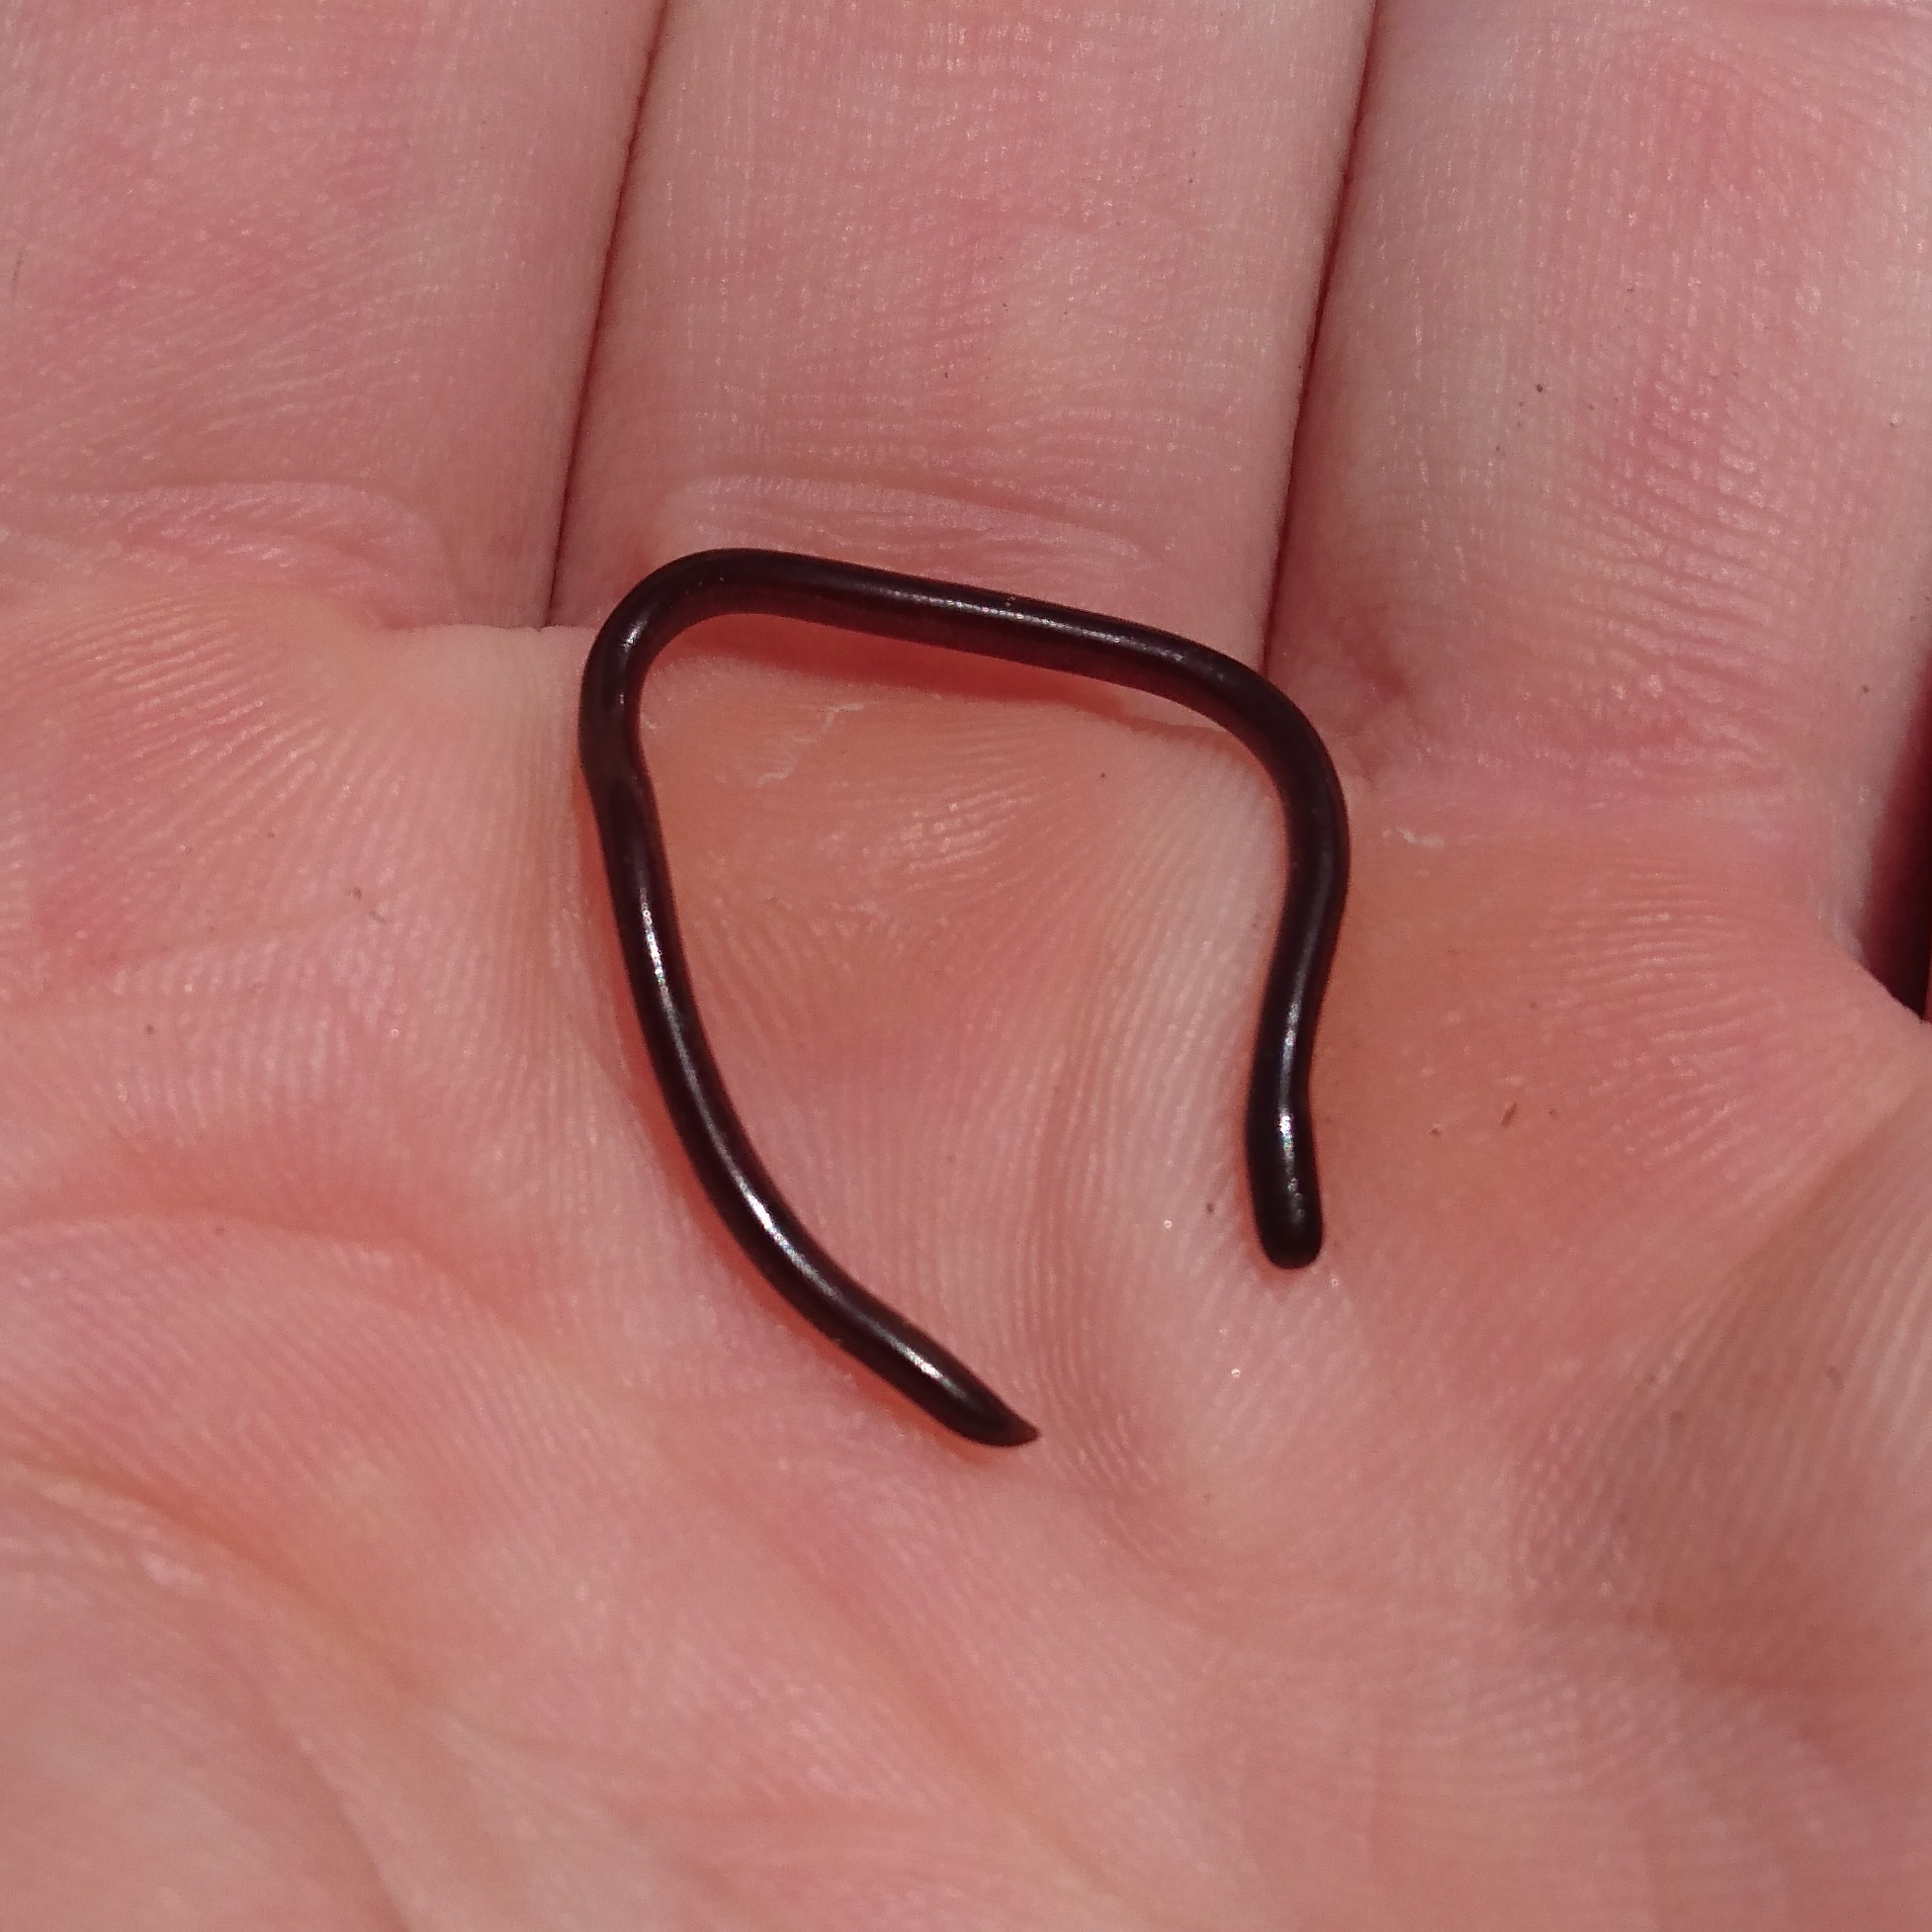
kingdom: Animalia
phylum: Chordata
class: Squamata
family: Typhlopidae
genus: Indotyphlops
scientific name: Indotyphlops braminus
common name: Brahminy blindsnake
